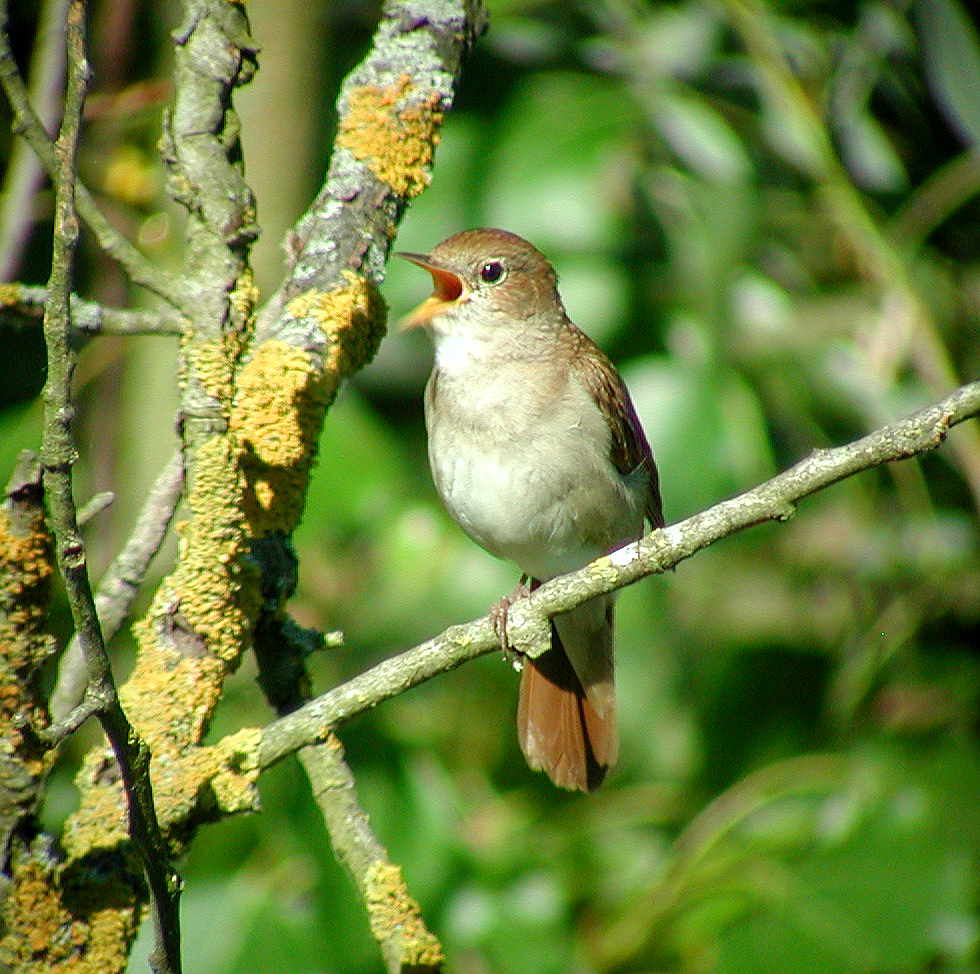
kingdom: Animalia
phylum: Chordata
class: Aves
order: Passeriformes
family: Muscicapidae
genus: Luscinia
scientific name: Luscinia megarhynchos
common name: Common nightingale
